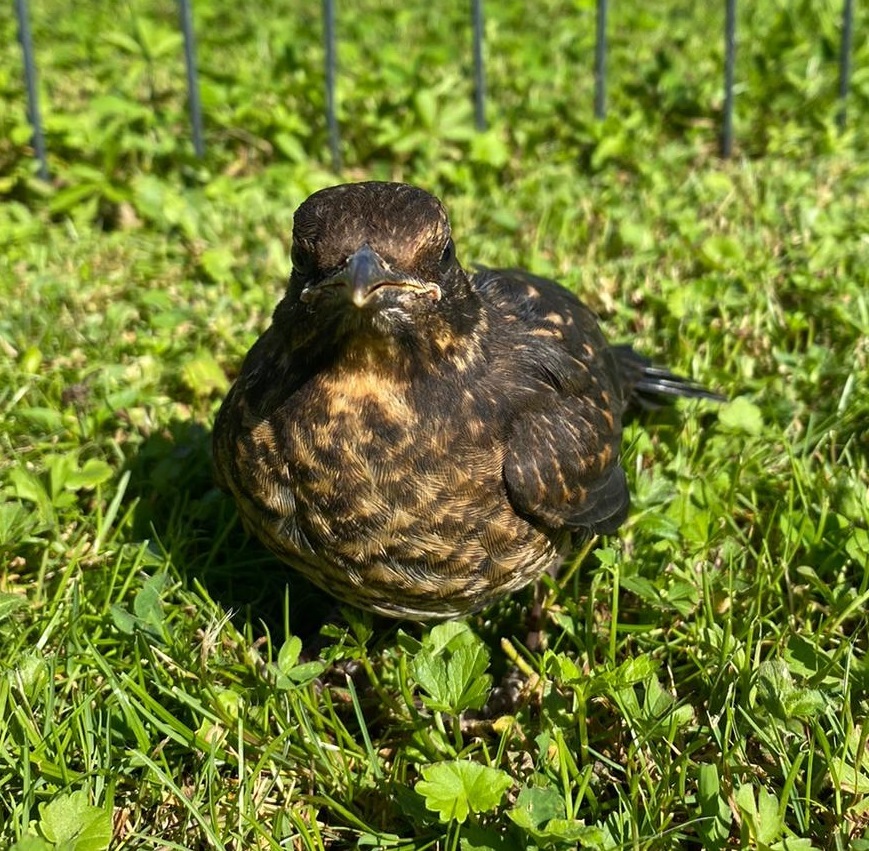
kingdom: Animalia
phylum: Chordata
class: Aves
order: Passeriformes
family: Turdidae
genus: Turdus
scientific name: Turdus merula
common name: Common blackbird
